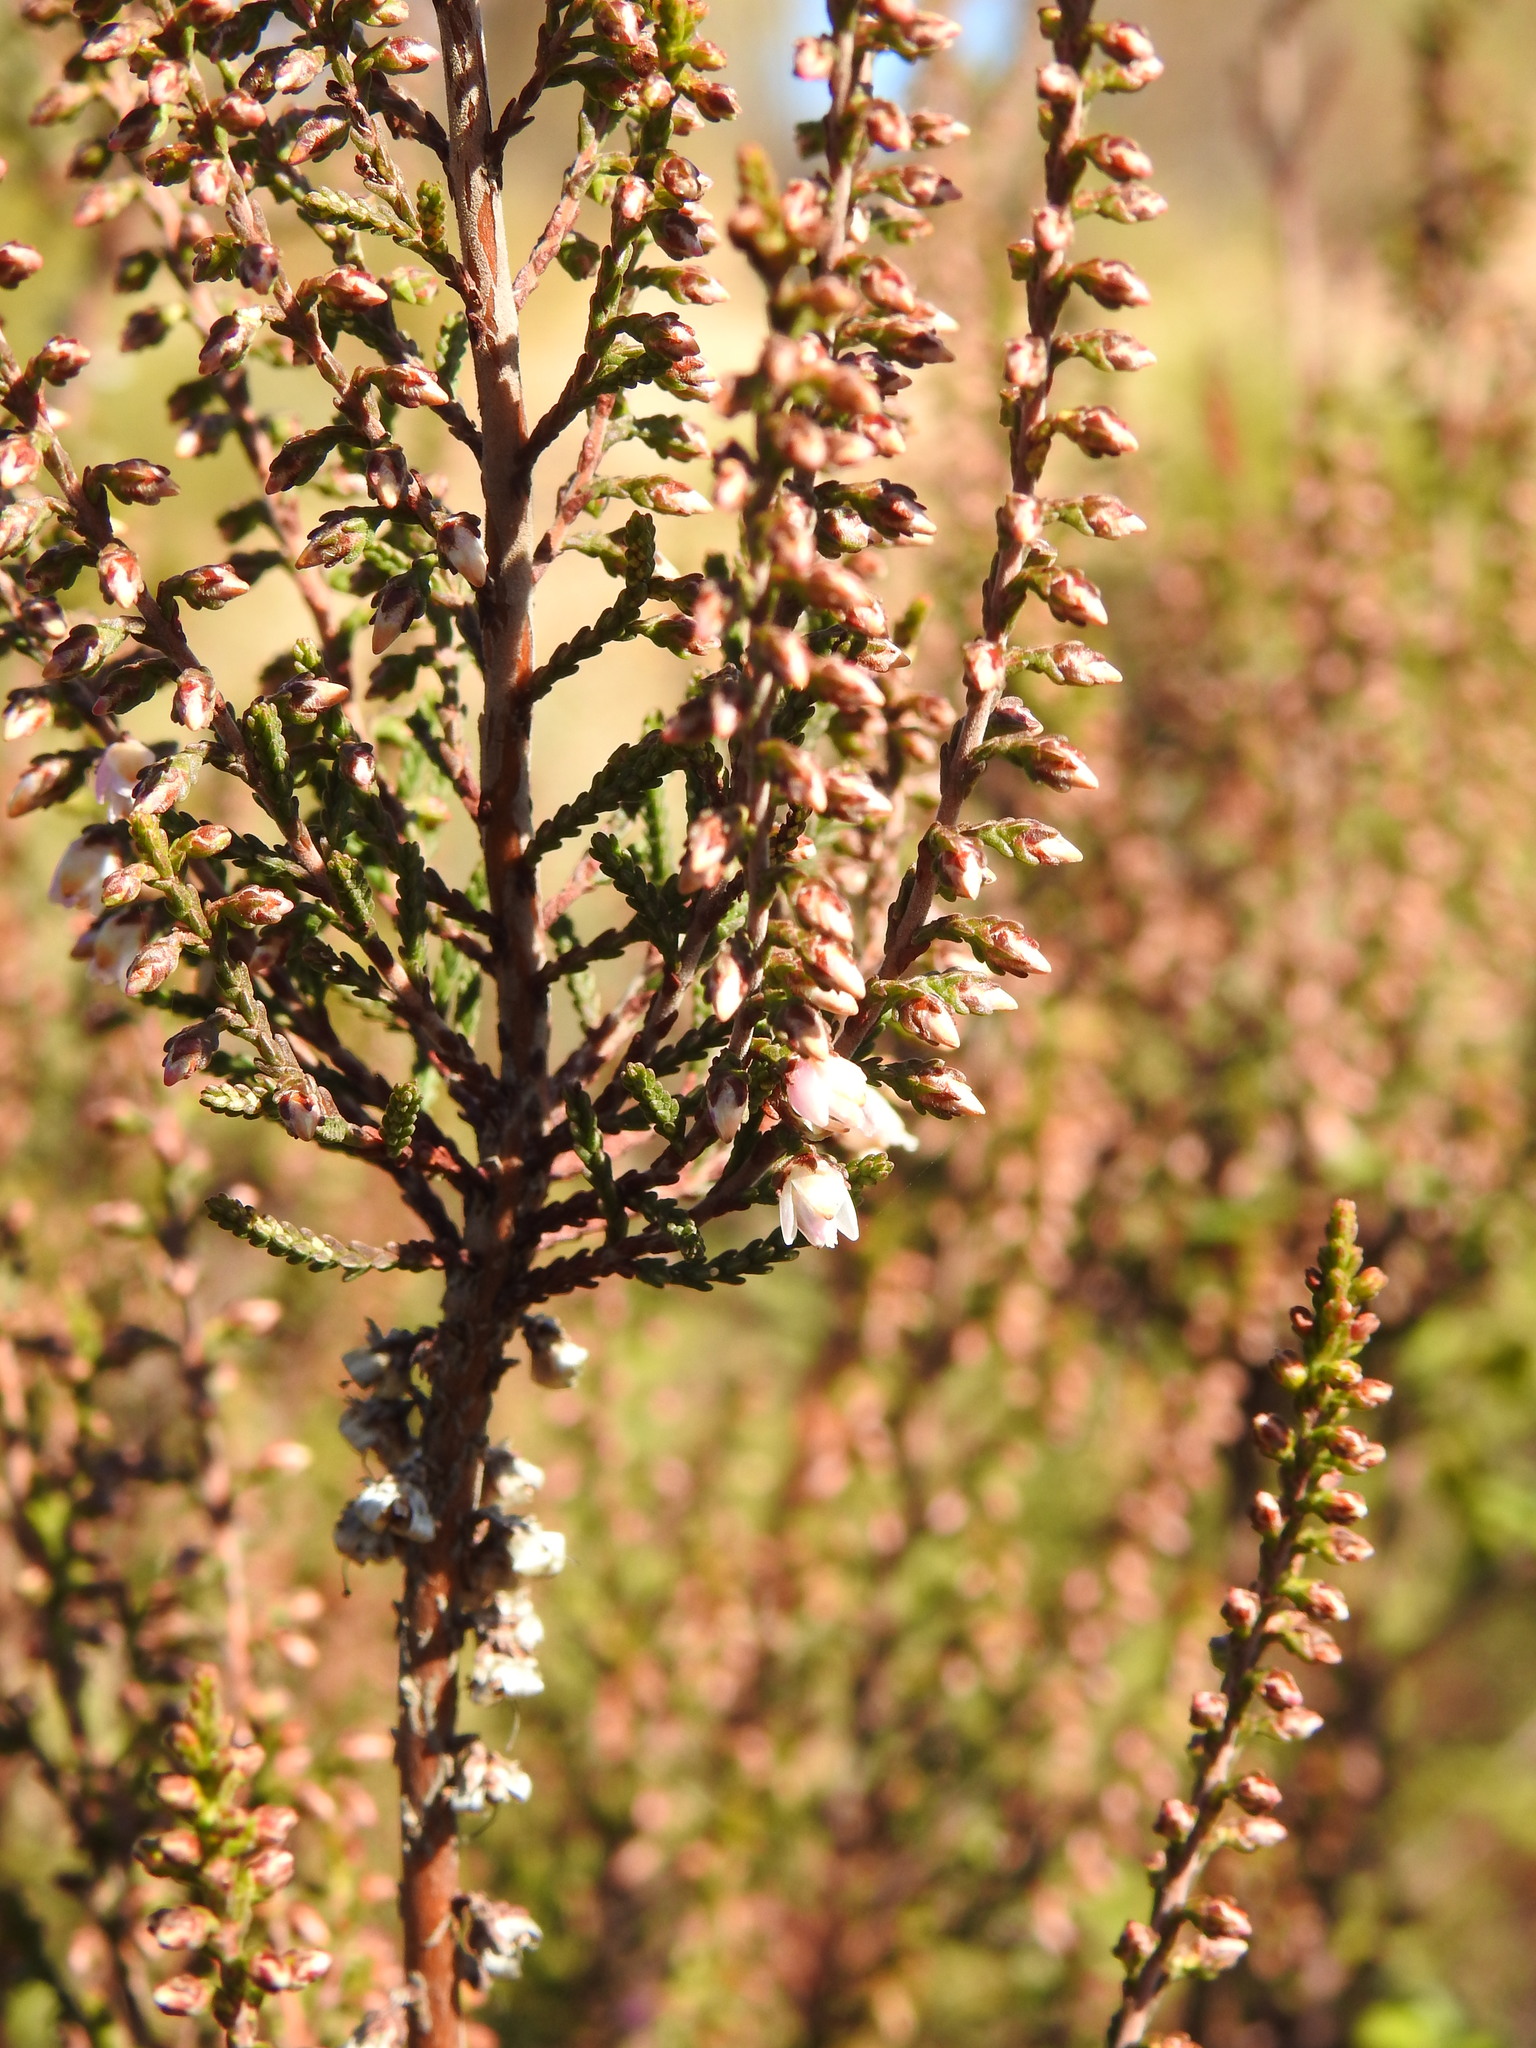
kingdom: Plantae
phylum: Tracheophyta
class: Magnoliopsida
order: Ericales
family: Ericaceae
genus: Calluna
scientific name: Calluna vulgaris
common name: Heather
